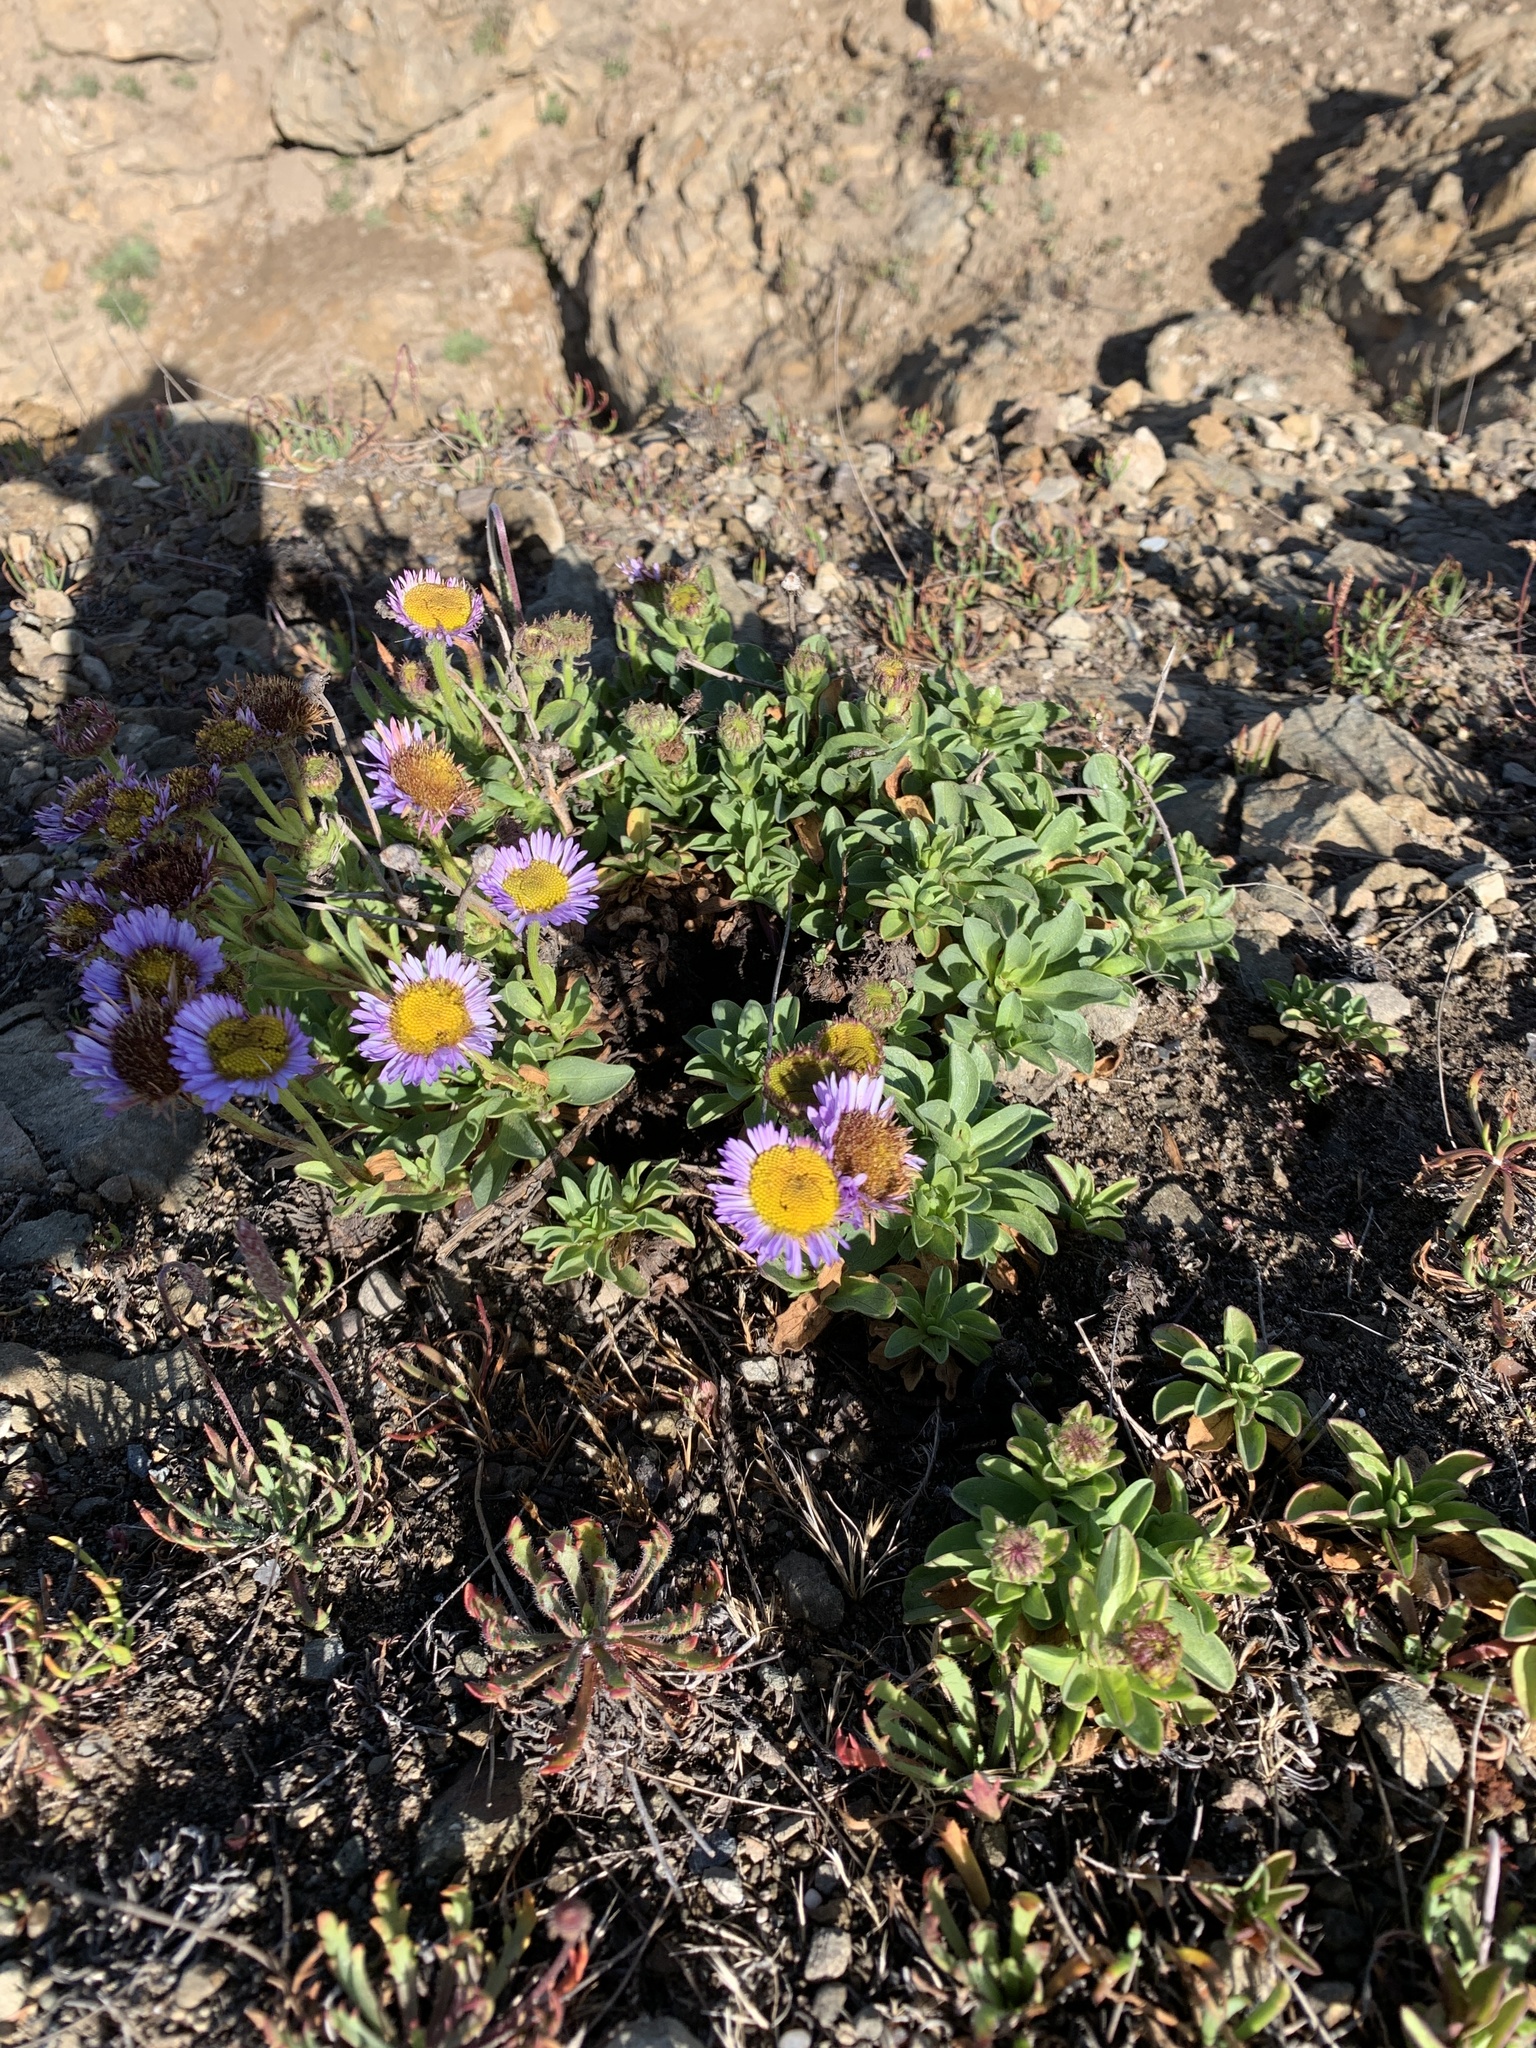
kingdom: Plantae
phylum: Tracheophyta
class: Magnoliopsida
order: Asterales
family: Asteraceae
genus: Erigeron
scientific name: Erigeron glaucus
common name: Seaside daisy
